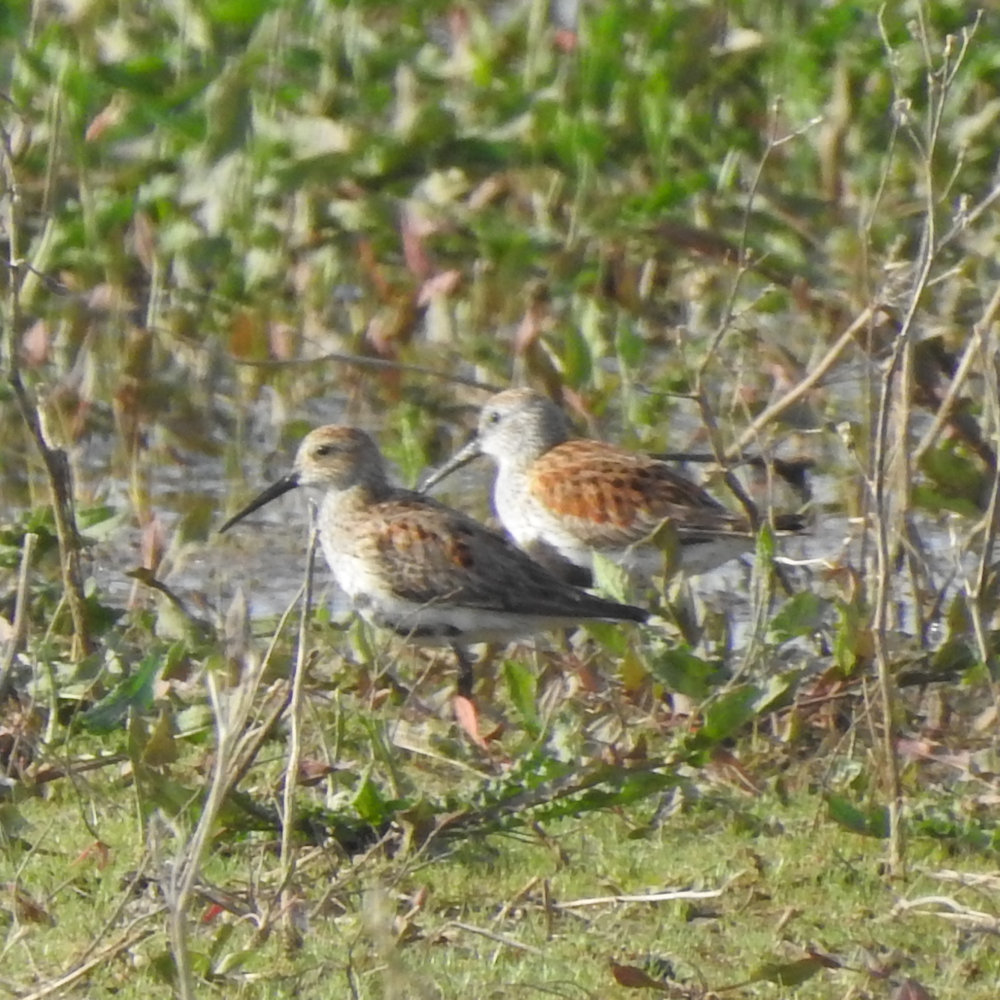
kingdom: Animalia
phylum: Chordata
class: Aves
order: Charadriiformes
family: Scolopacidae
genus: Calidris
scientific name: Calidris alpina
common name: Dunlin
